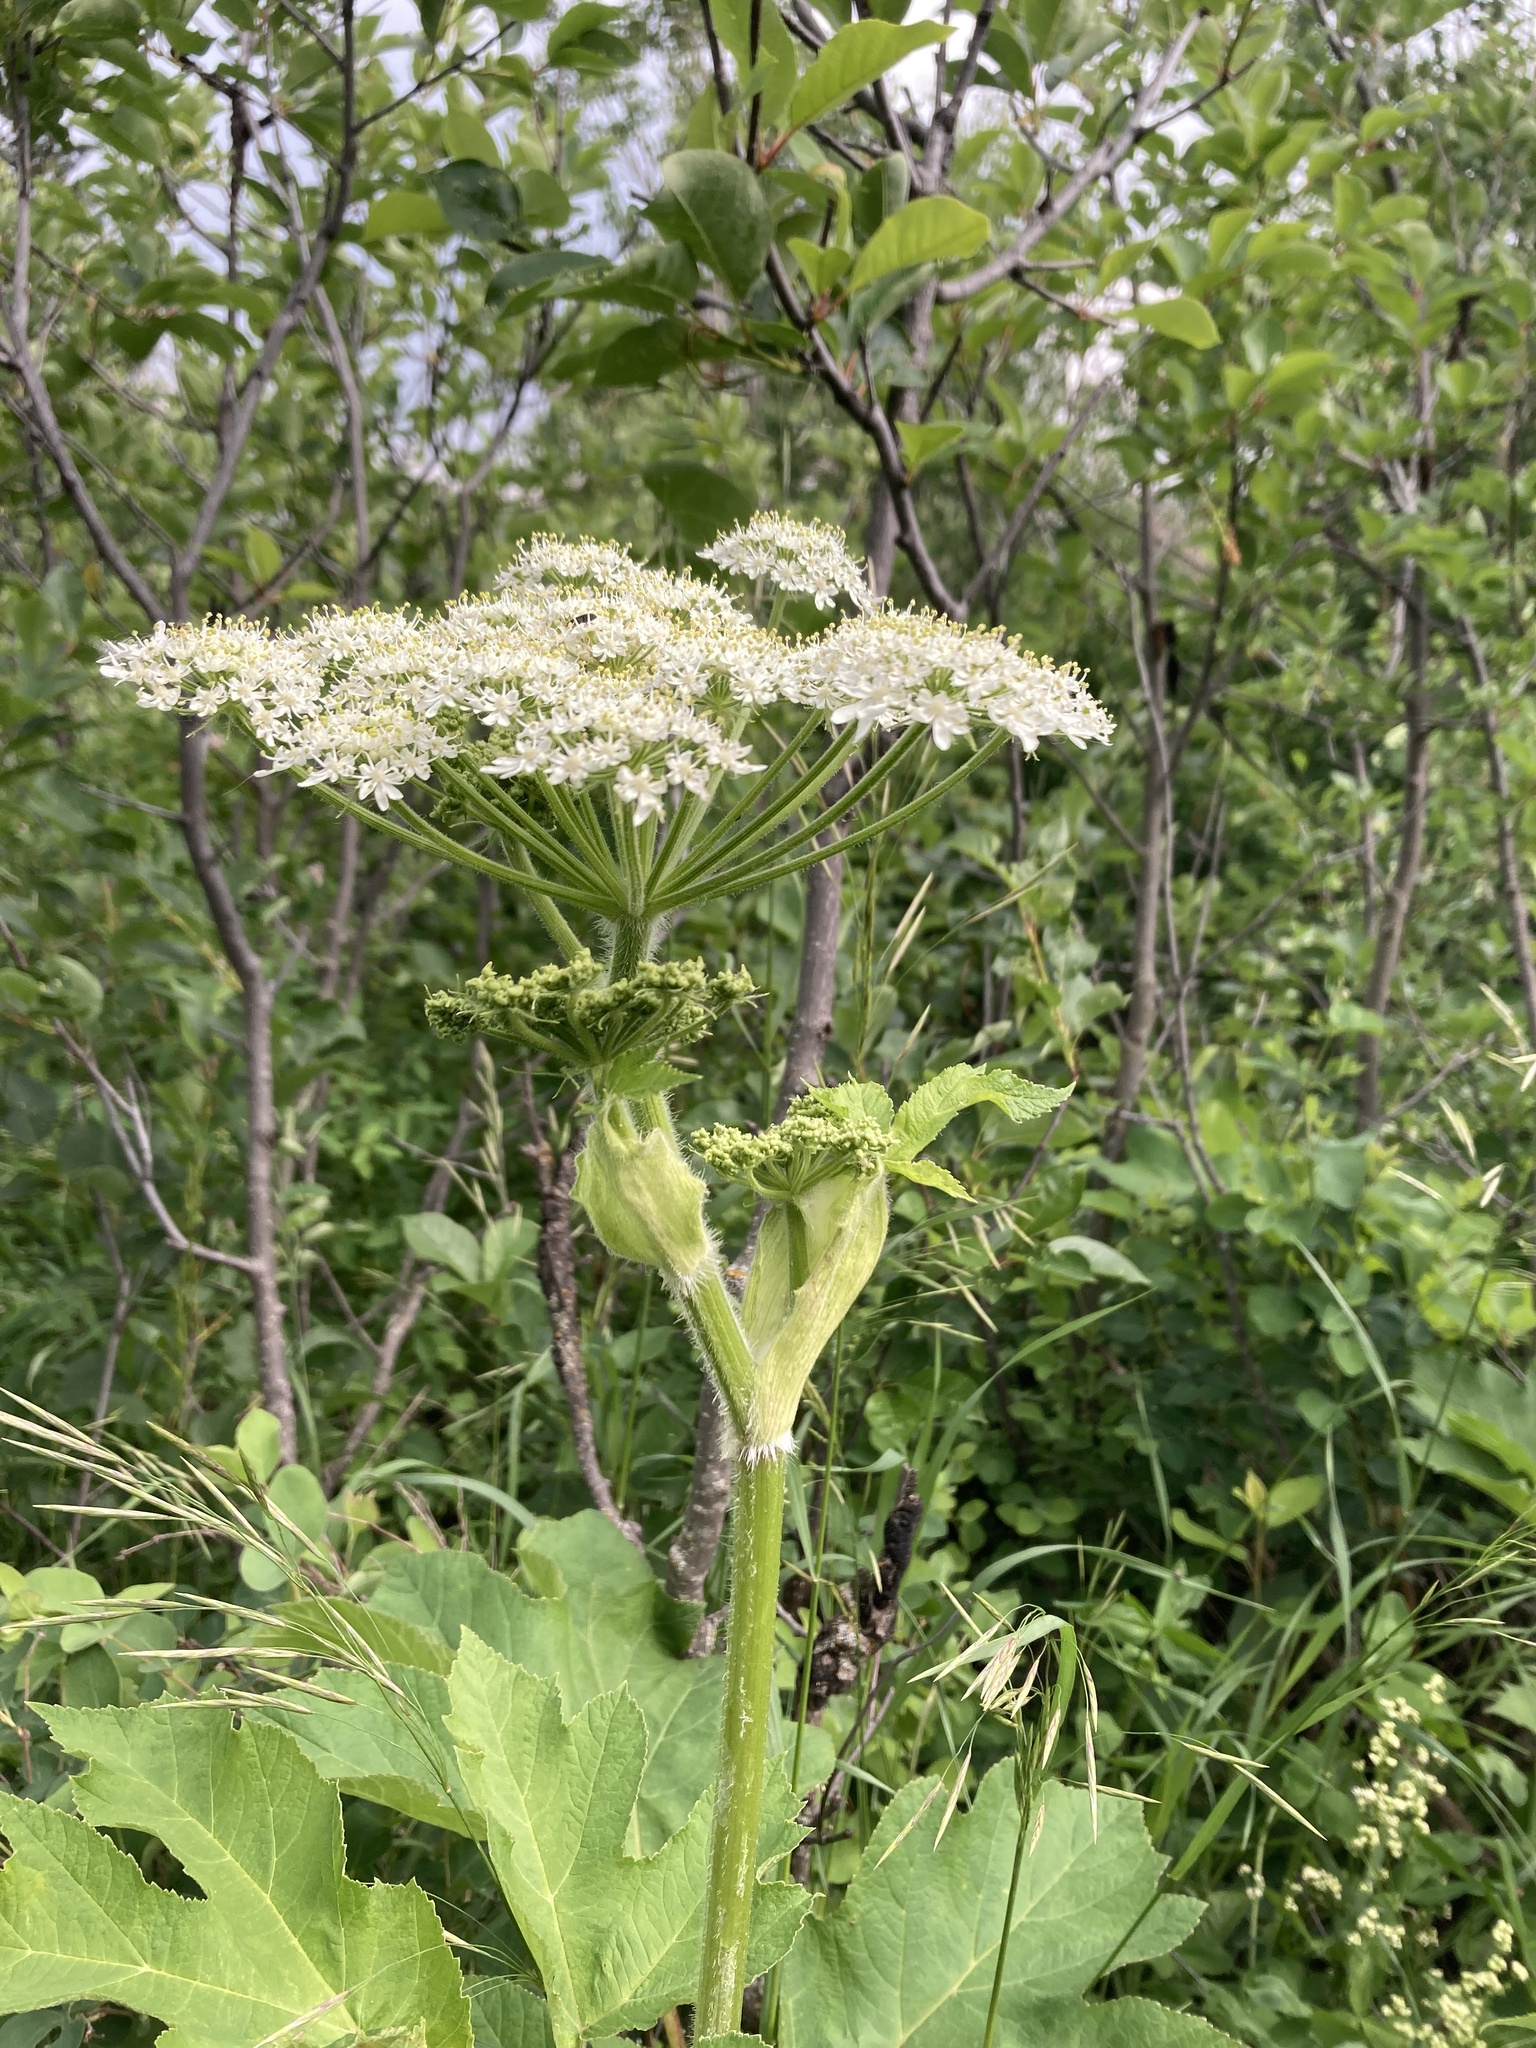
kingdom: Plantae
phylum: Tracheophyta
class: Magnoliopsida
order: Apiales
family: Apiaceae
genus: Heracleum
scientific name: Heracleum maximum
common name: American cow parsnip
